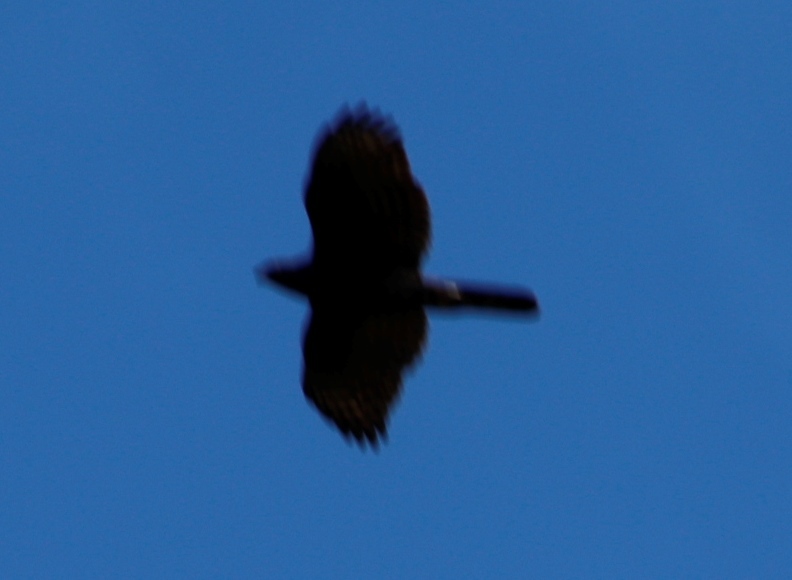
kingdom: Animalia
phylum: Chordata
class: Aves
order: Accipitriformes
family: Accipitridae
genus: Accipiter
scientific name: Accipiter melanoleucus
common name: Black sparrowhawk
